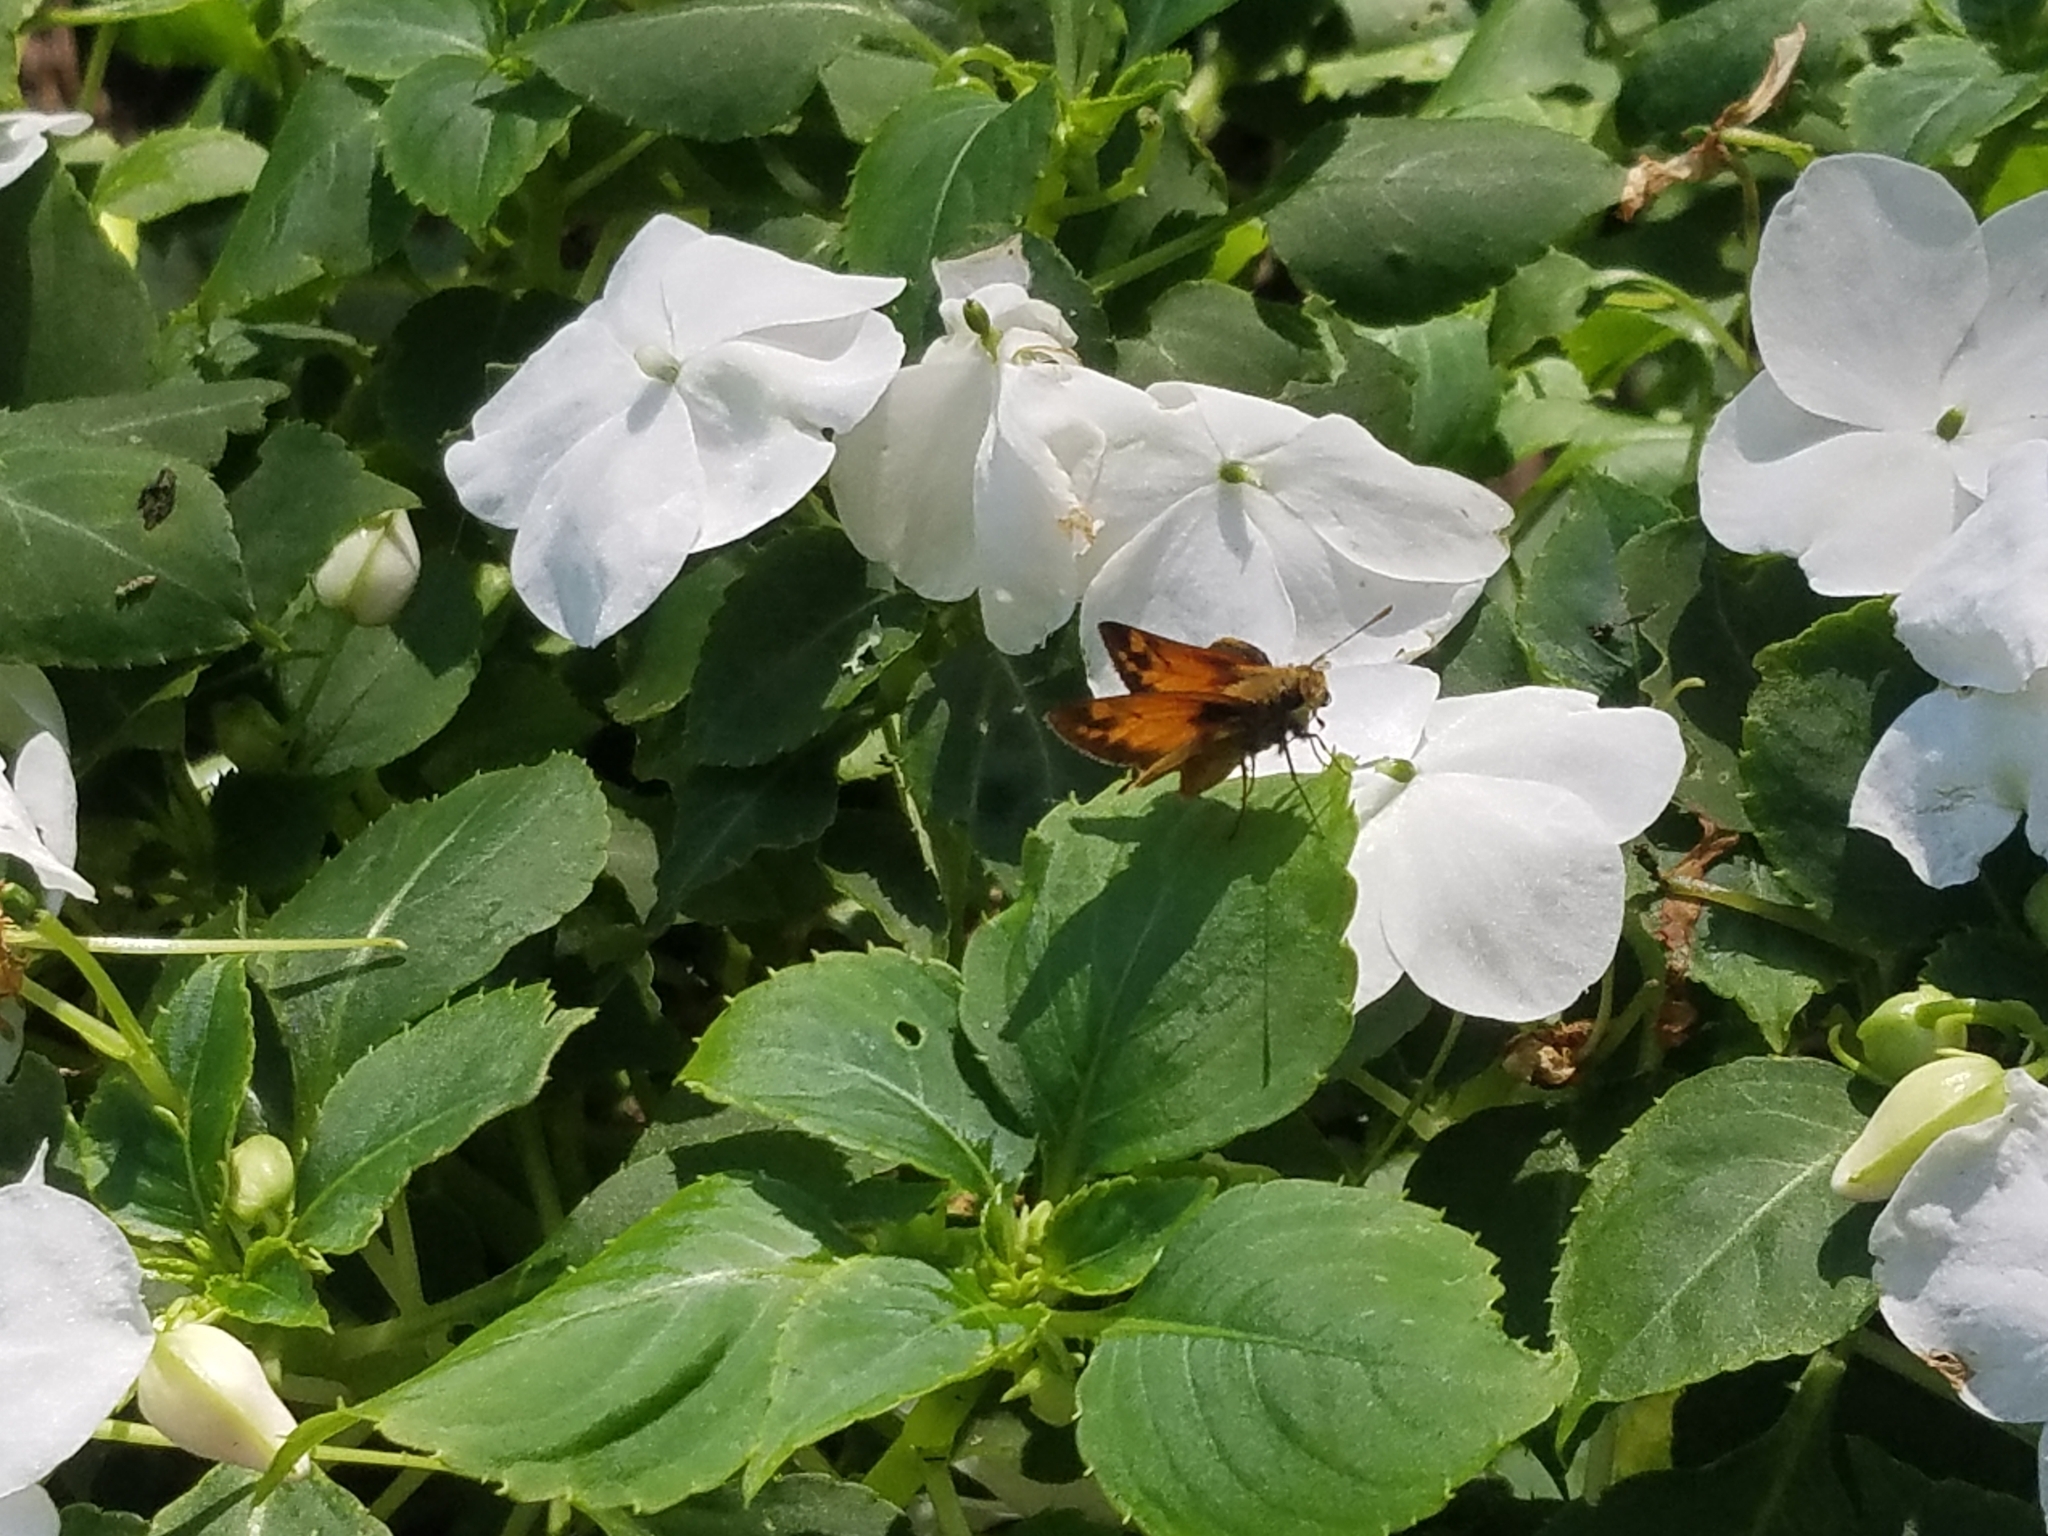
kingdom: Animalia
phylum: Arthropoda
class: Insecta
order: Lepidoptera
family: Hesperiidae
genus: Lon
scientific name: Lon zabulon
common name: Zabulon skipper
